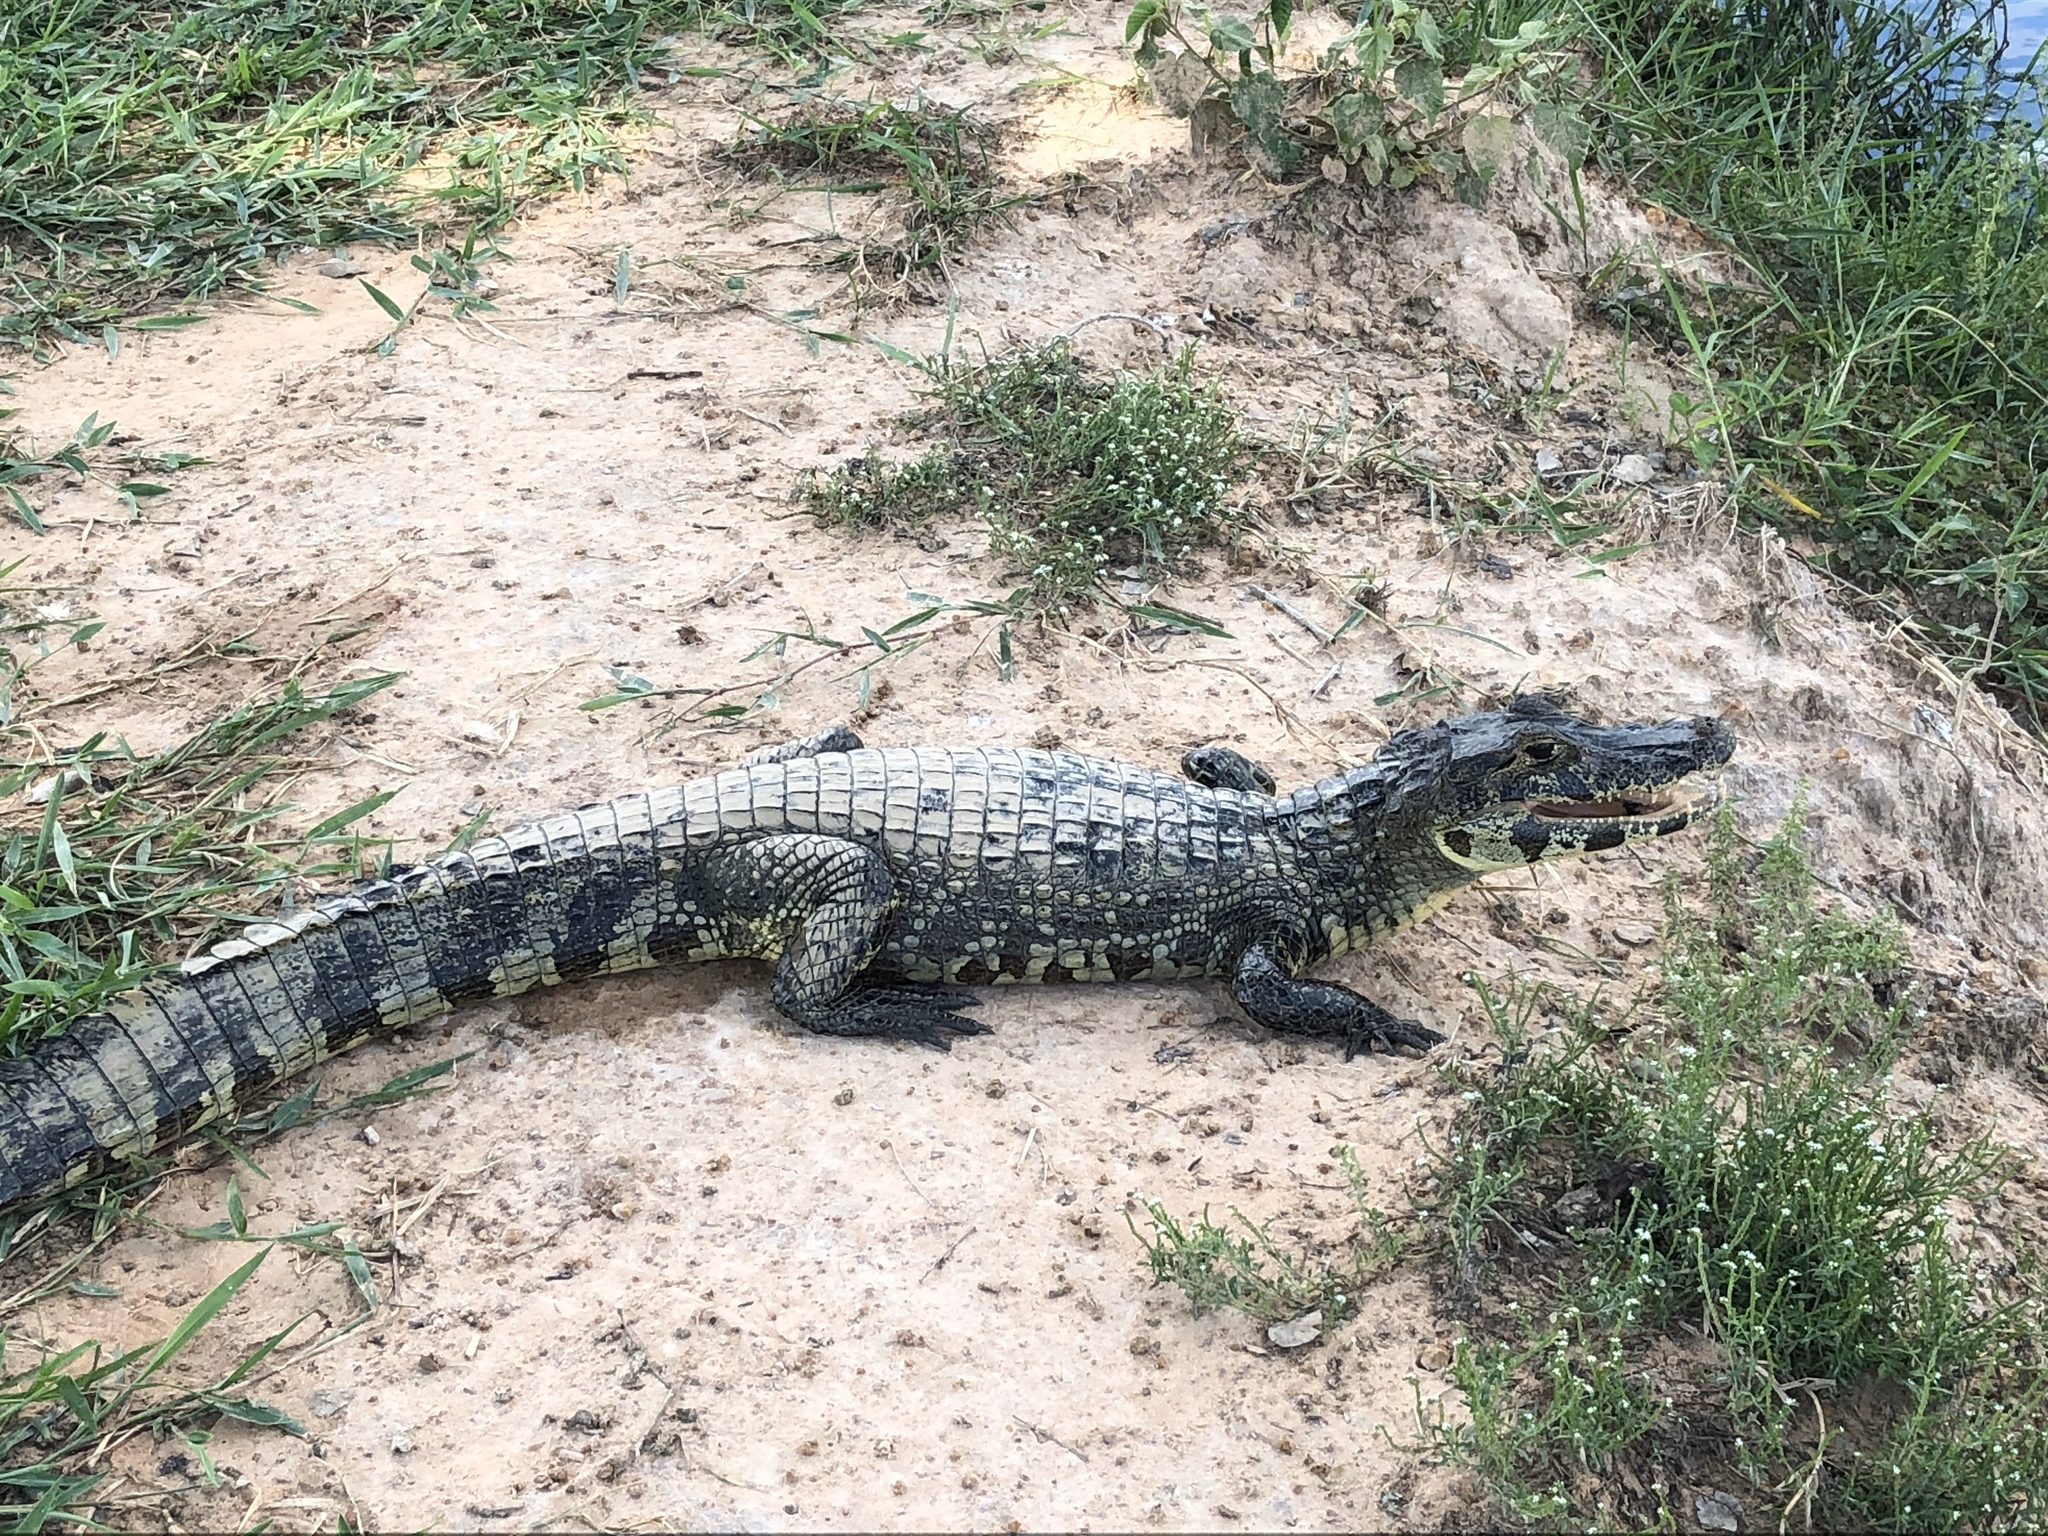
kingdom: Animalia
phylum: Chordata
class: Crocodylia
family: Alligatoridae
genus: Caiman
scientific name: Caiman yacare
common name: Yacare caiman
